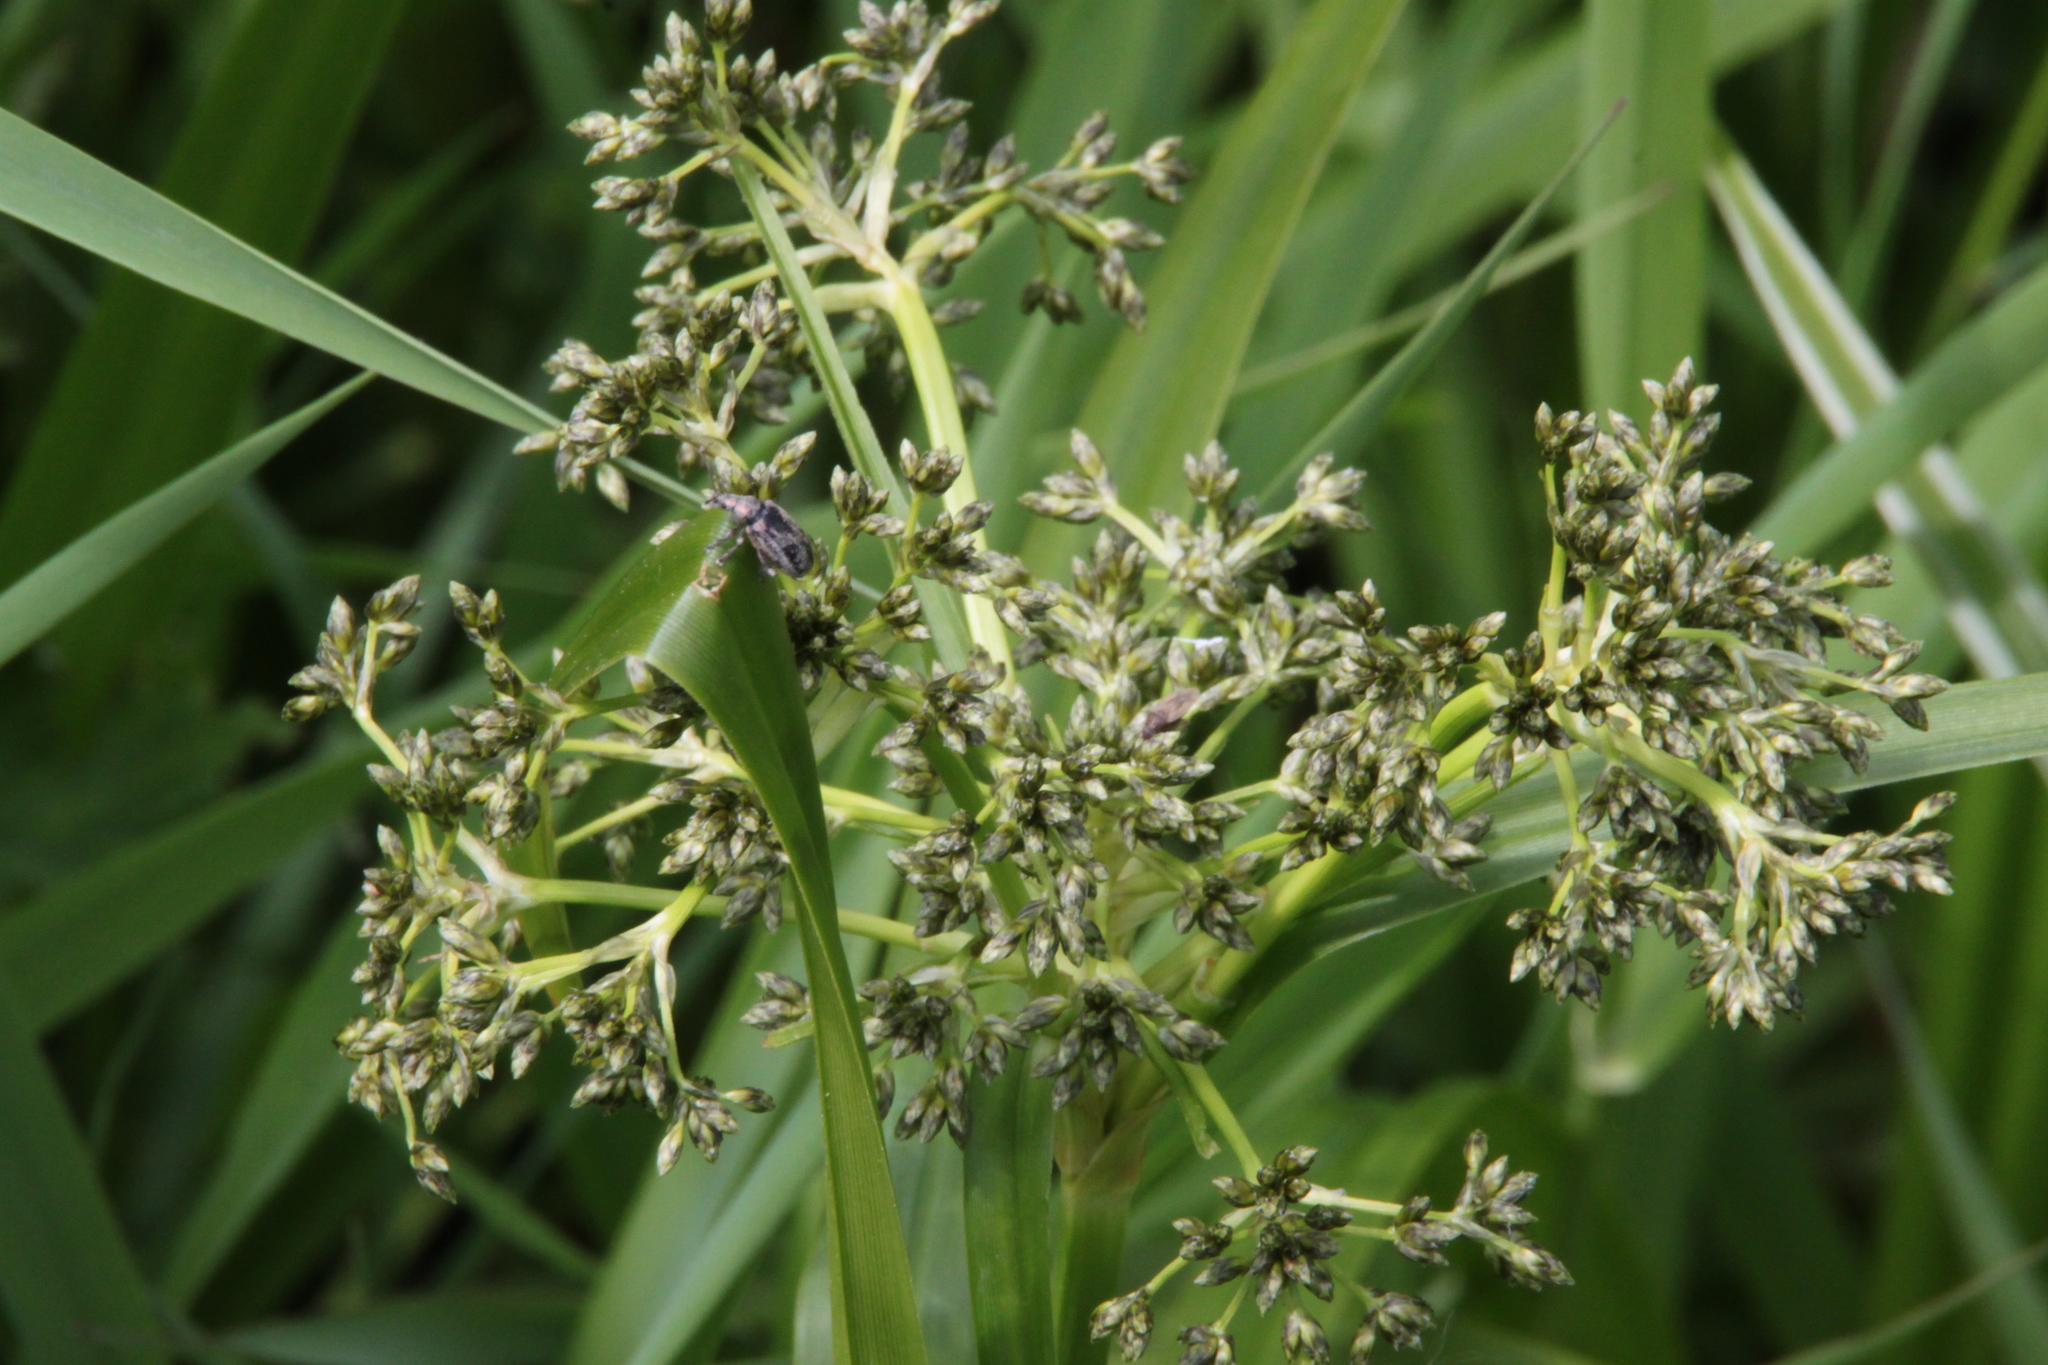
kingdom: Plantae
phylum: Tracheophyta
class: Liliopsida
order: Poales
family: Cyperaceae
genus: Scirpus
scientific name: Scirpus sylvaticus
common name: Wood club-rush
